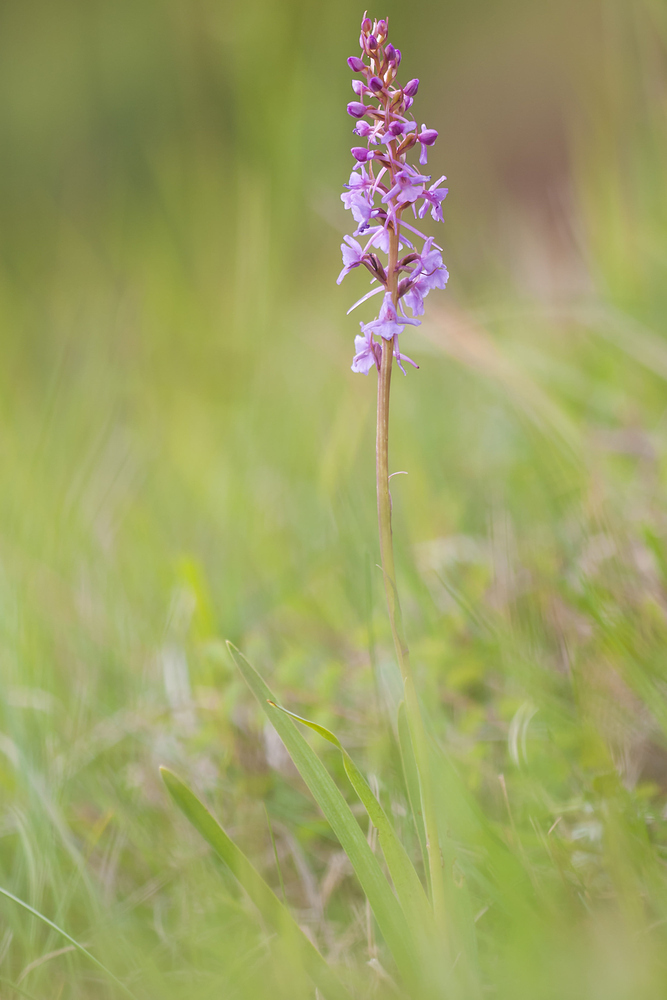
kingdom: Plantae
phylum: Tracheophyta
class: Liliopsida
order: Asparagales
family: Orchidaceae
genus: Gymnadenia
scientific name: Gymnadenia conopsea
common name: Fragrant orchid
